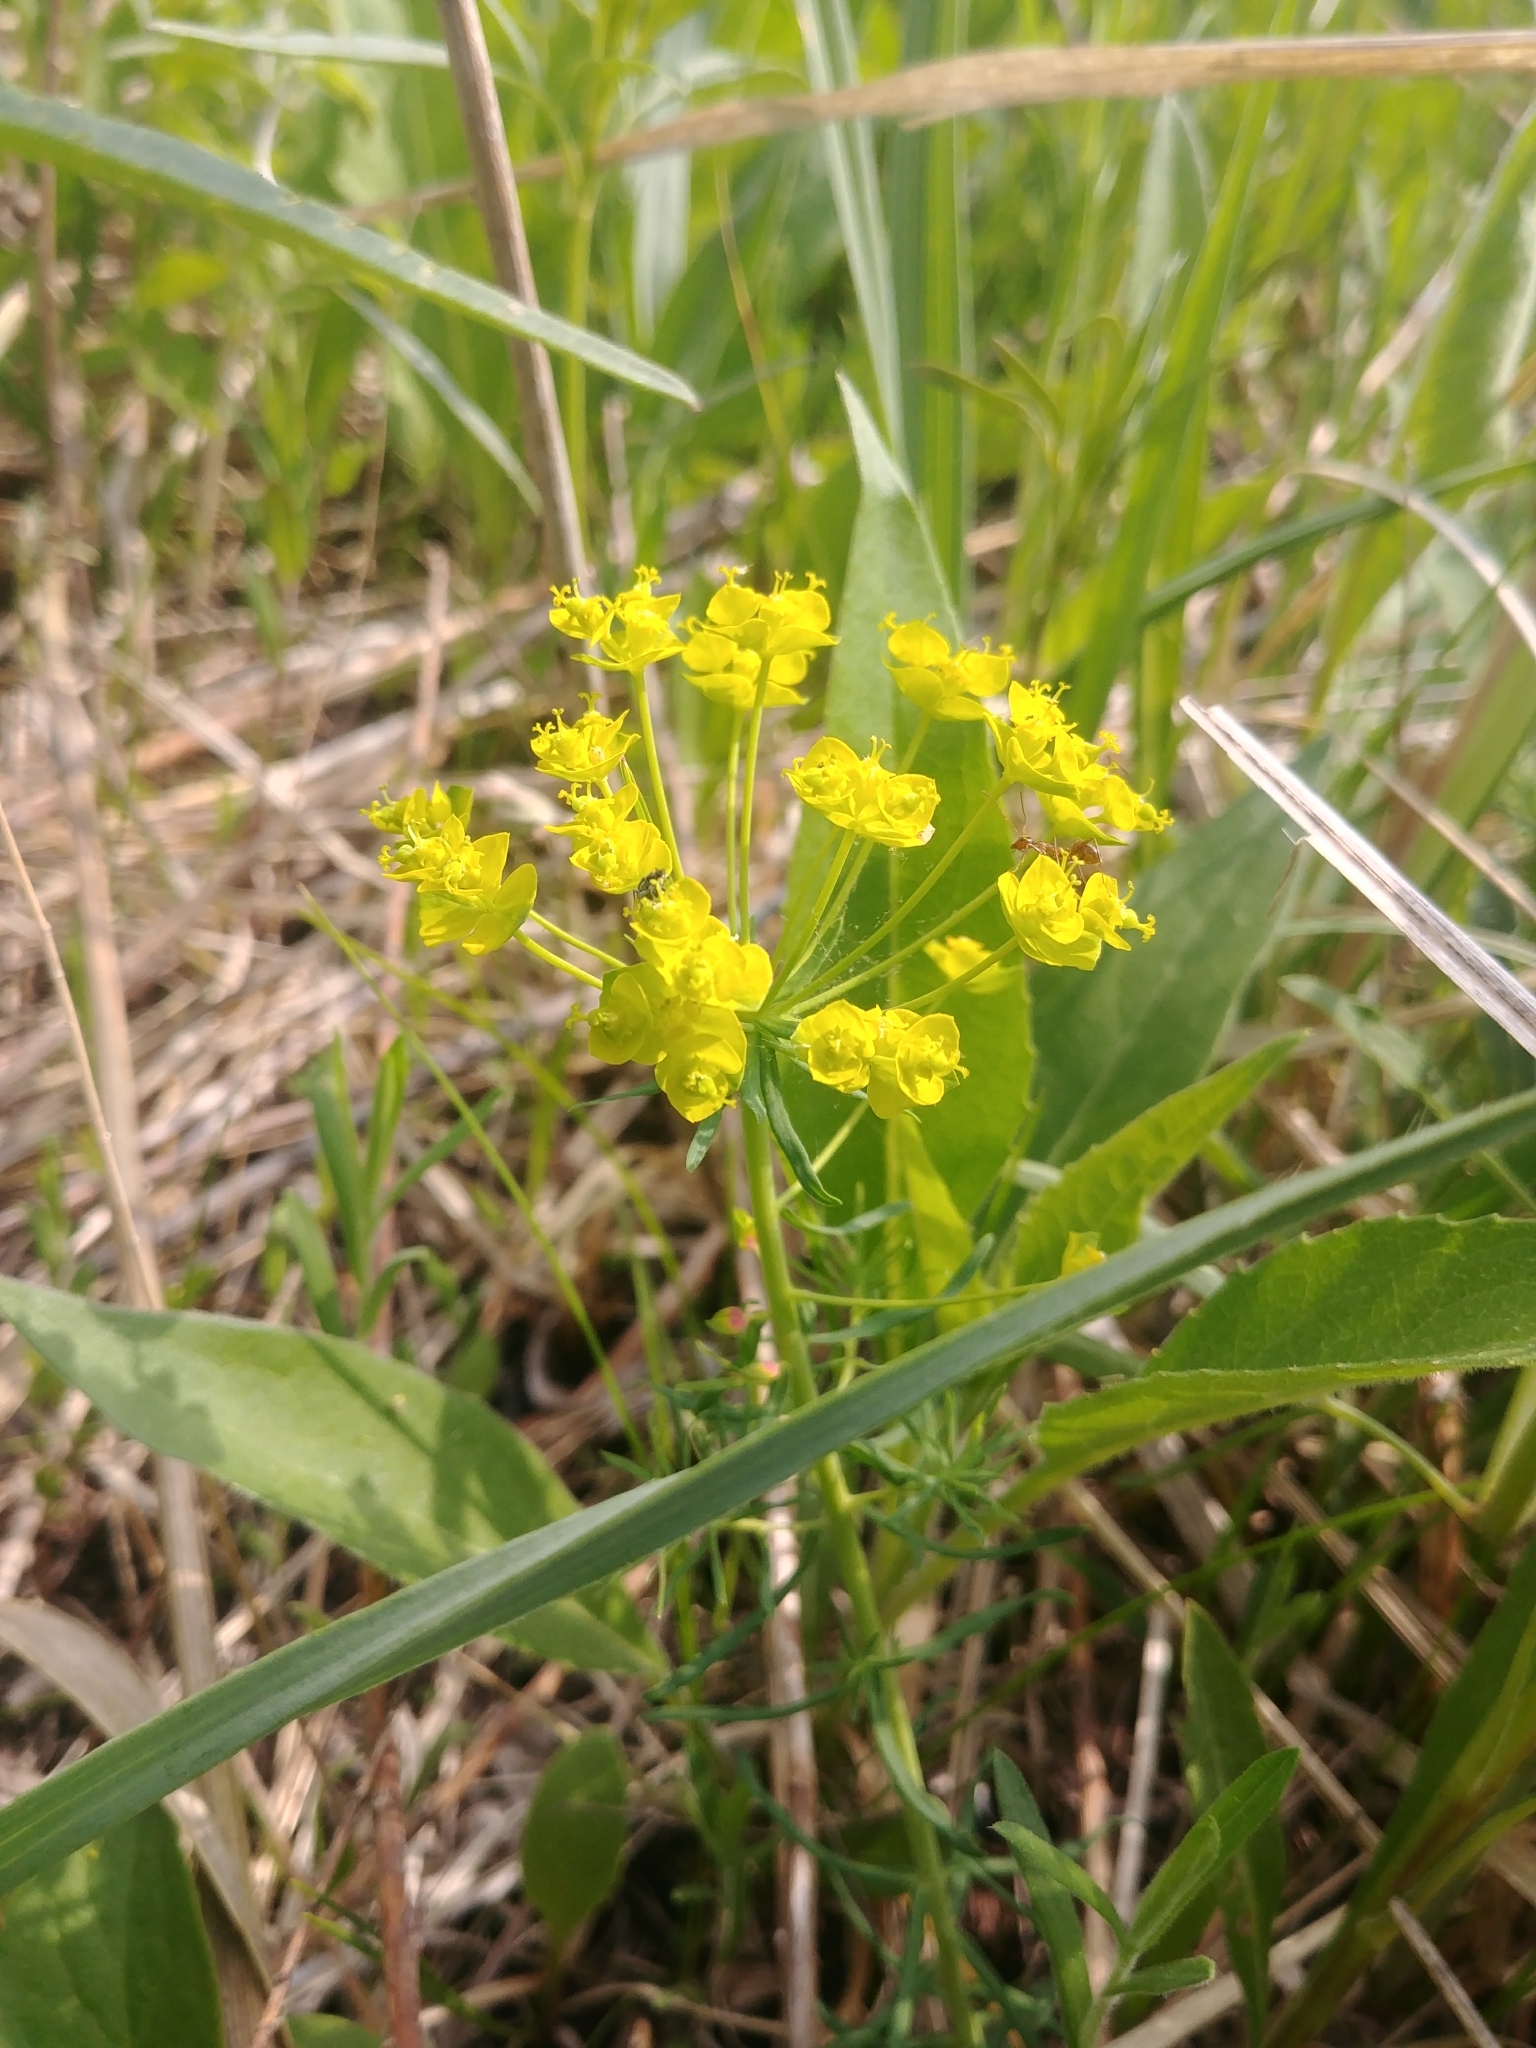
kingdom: Plantae
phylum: Tracheophyta
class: Magnoliopsida
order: Malpighiales
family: Euphorbiaceae
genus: Euphorbia
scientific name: Euphorbia cyparissias
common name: Cypress spurge
